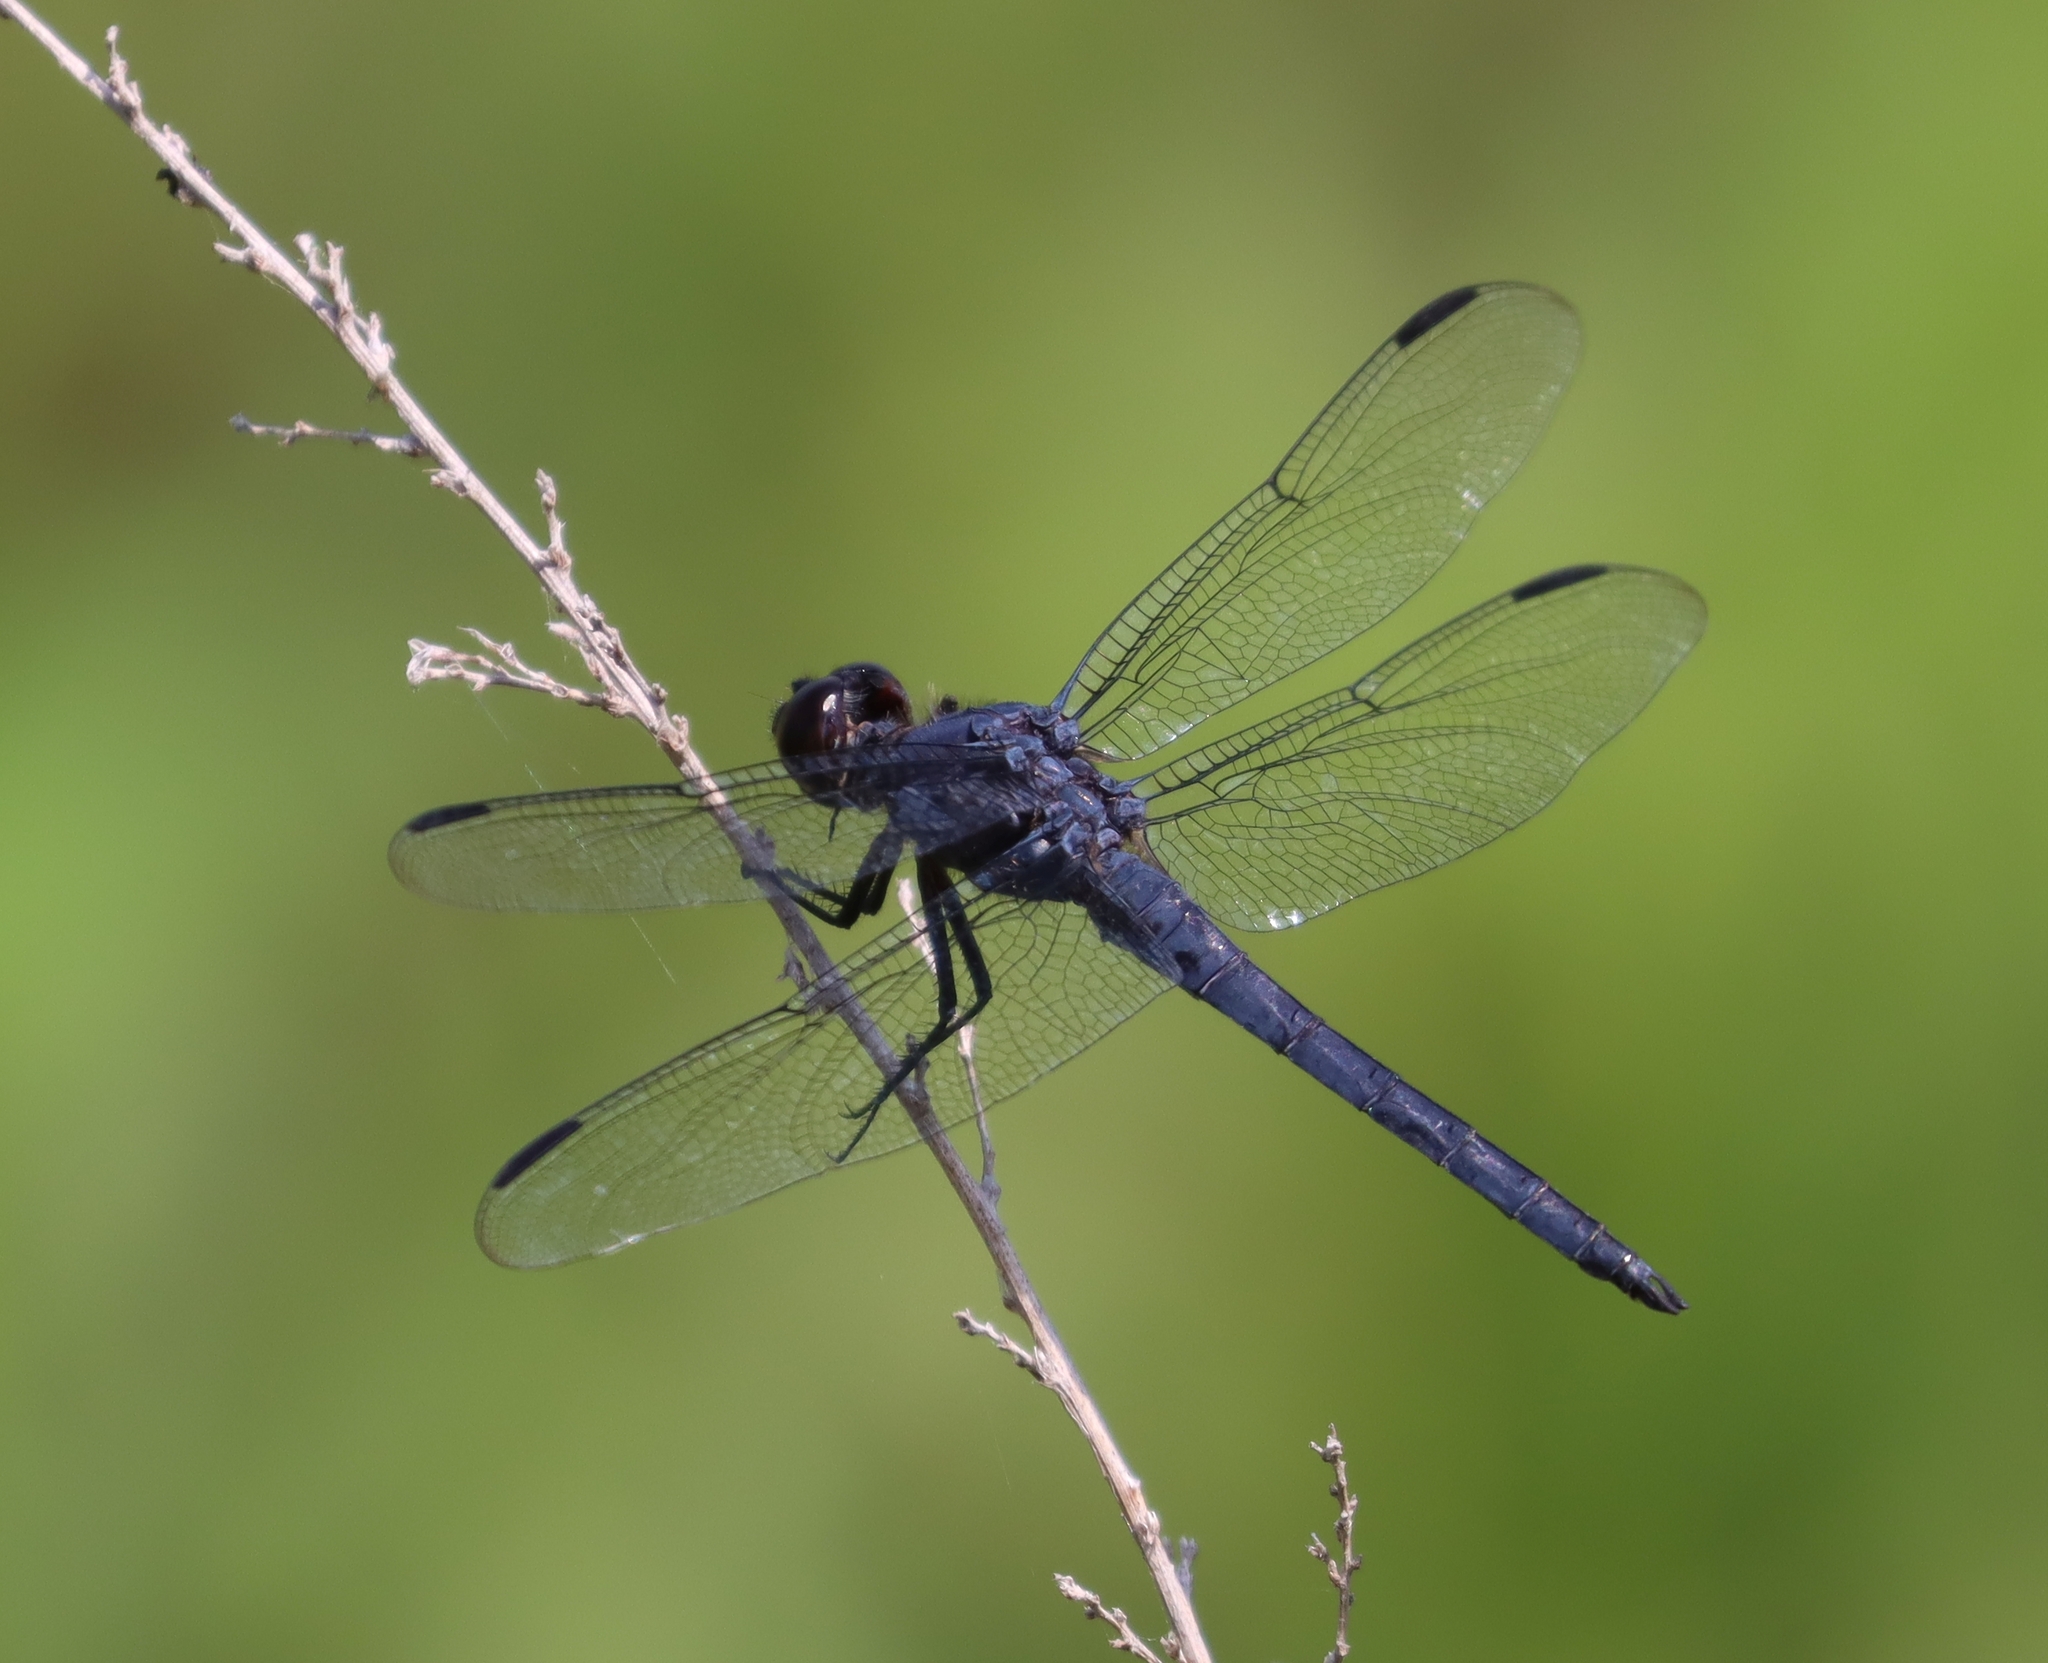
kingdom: Animalia
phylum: Arthropoda
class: Insecta
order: Odonata
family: Libellulidae
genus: Libellula
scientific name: Libellula incesta
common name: Slaty skimmer
